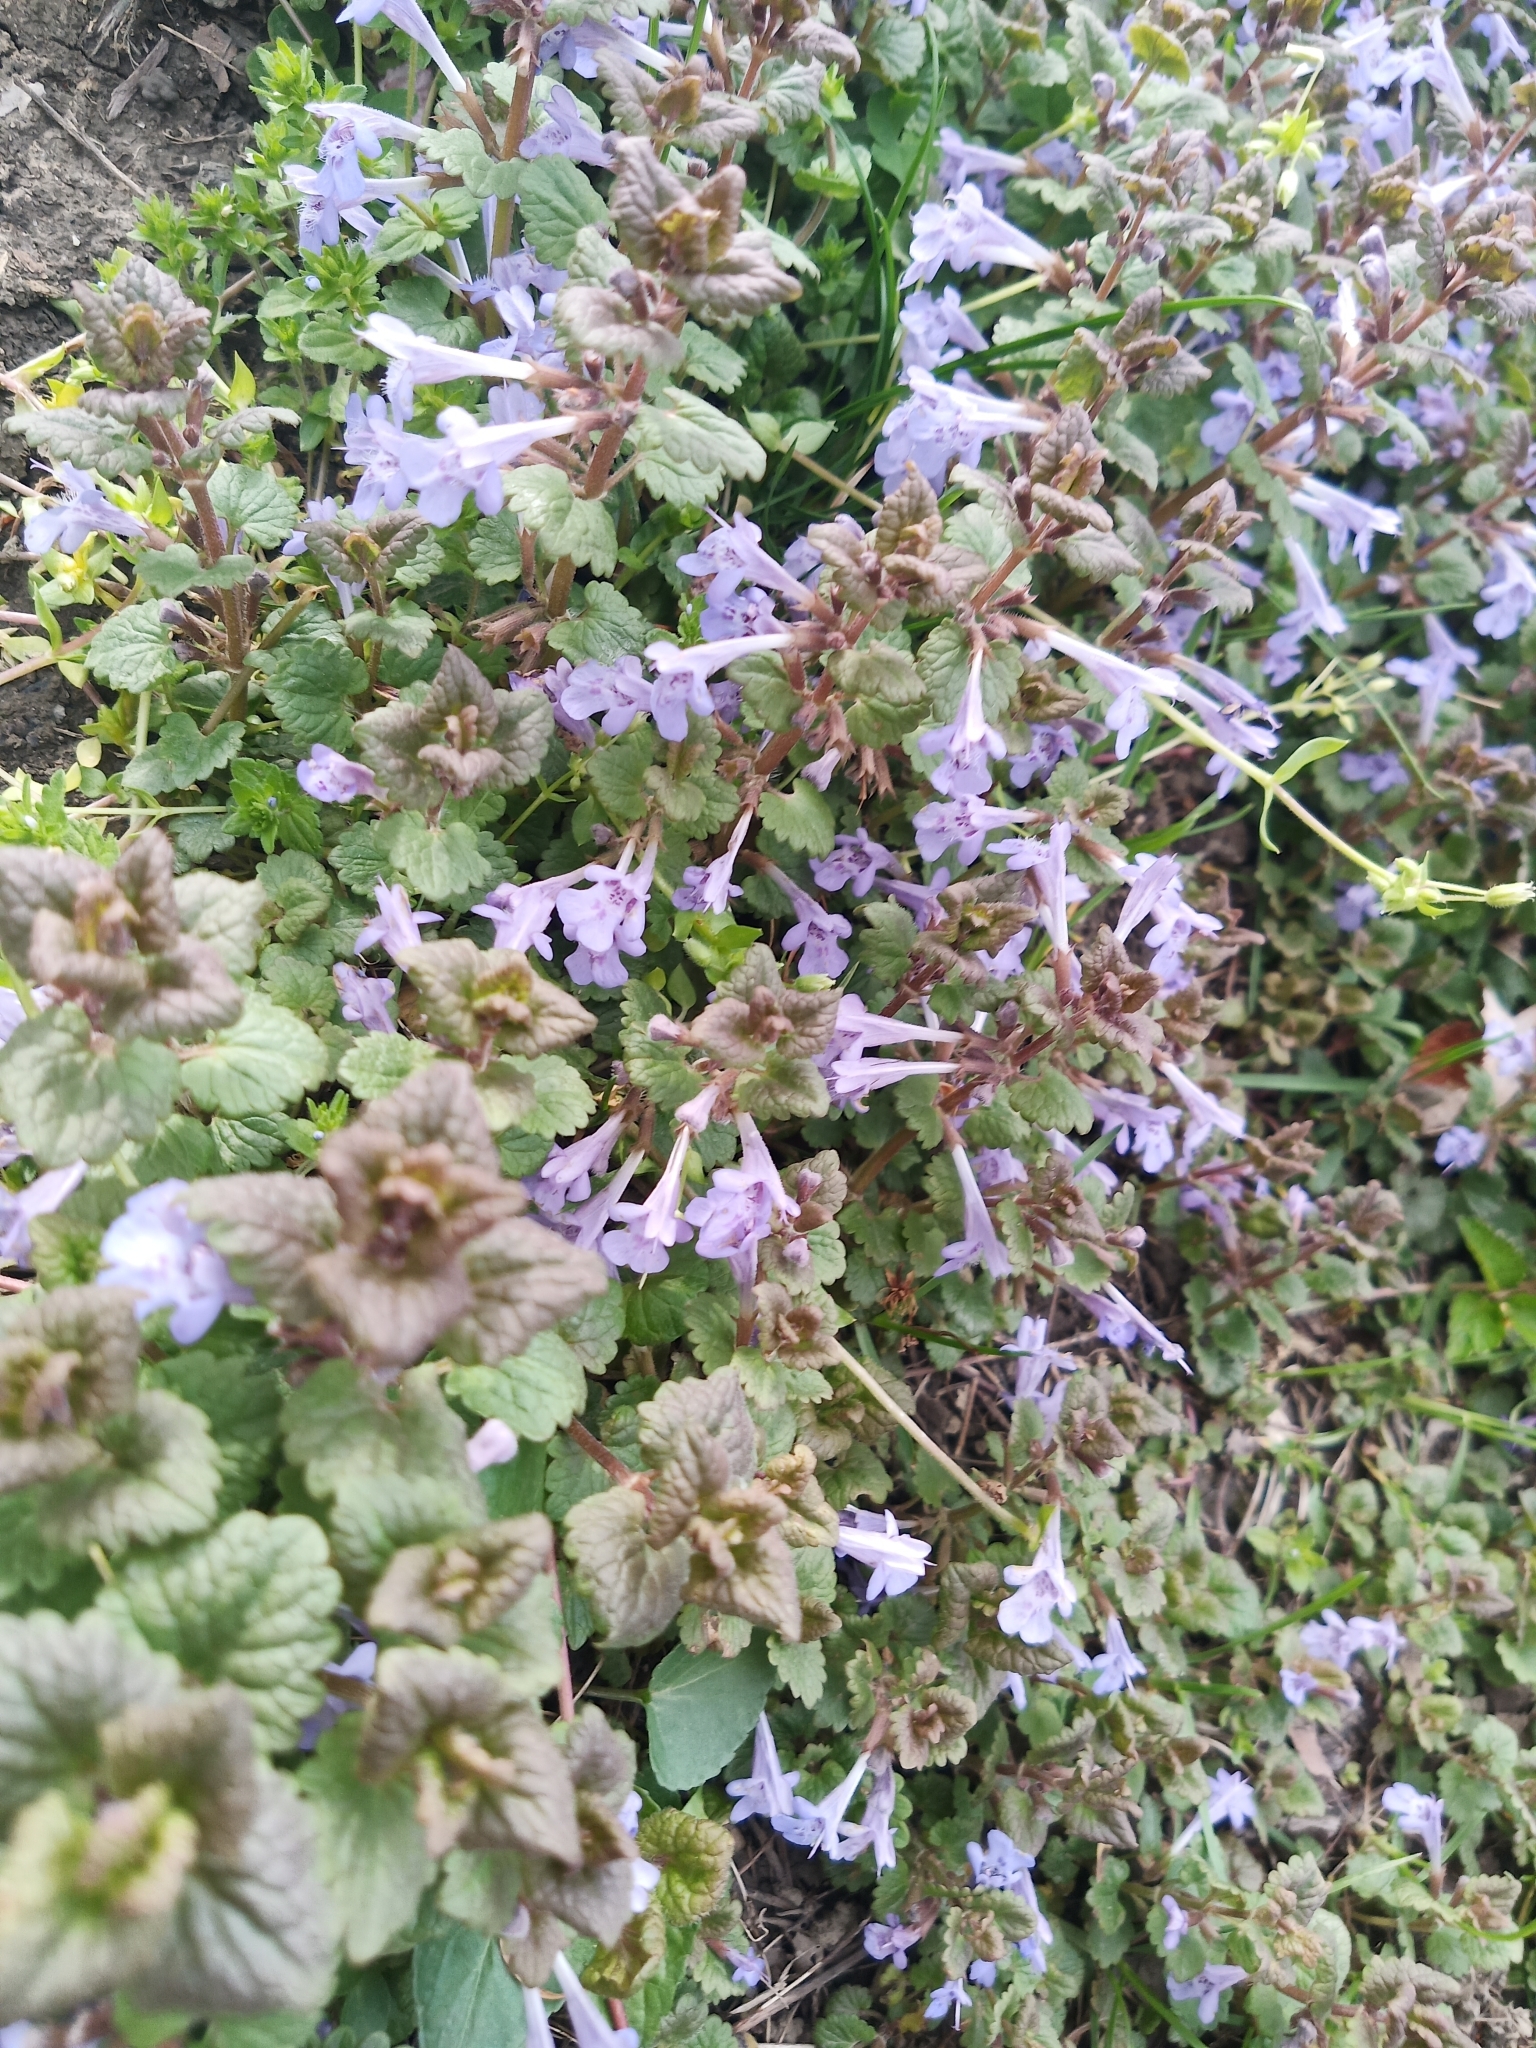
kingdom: Plantae
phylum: Tracheophyta
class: Magnoliopsida
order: Lamiales
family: Lamiaceae
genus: Glechoma
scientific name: Glechoma hederacea
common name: Ground ivy
